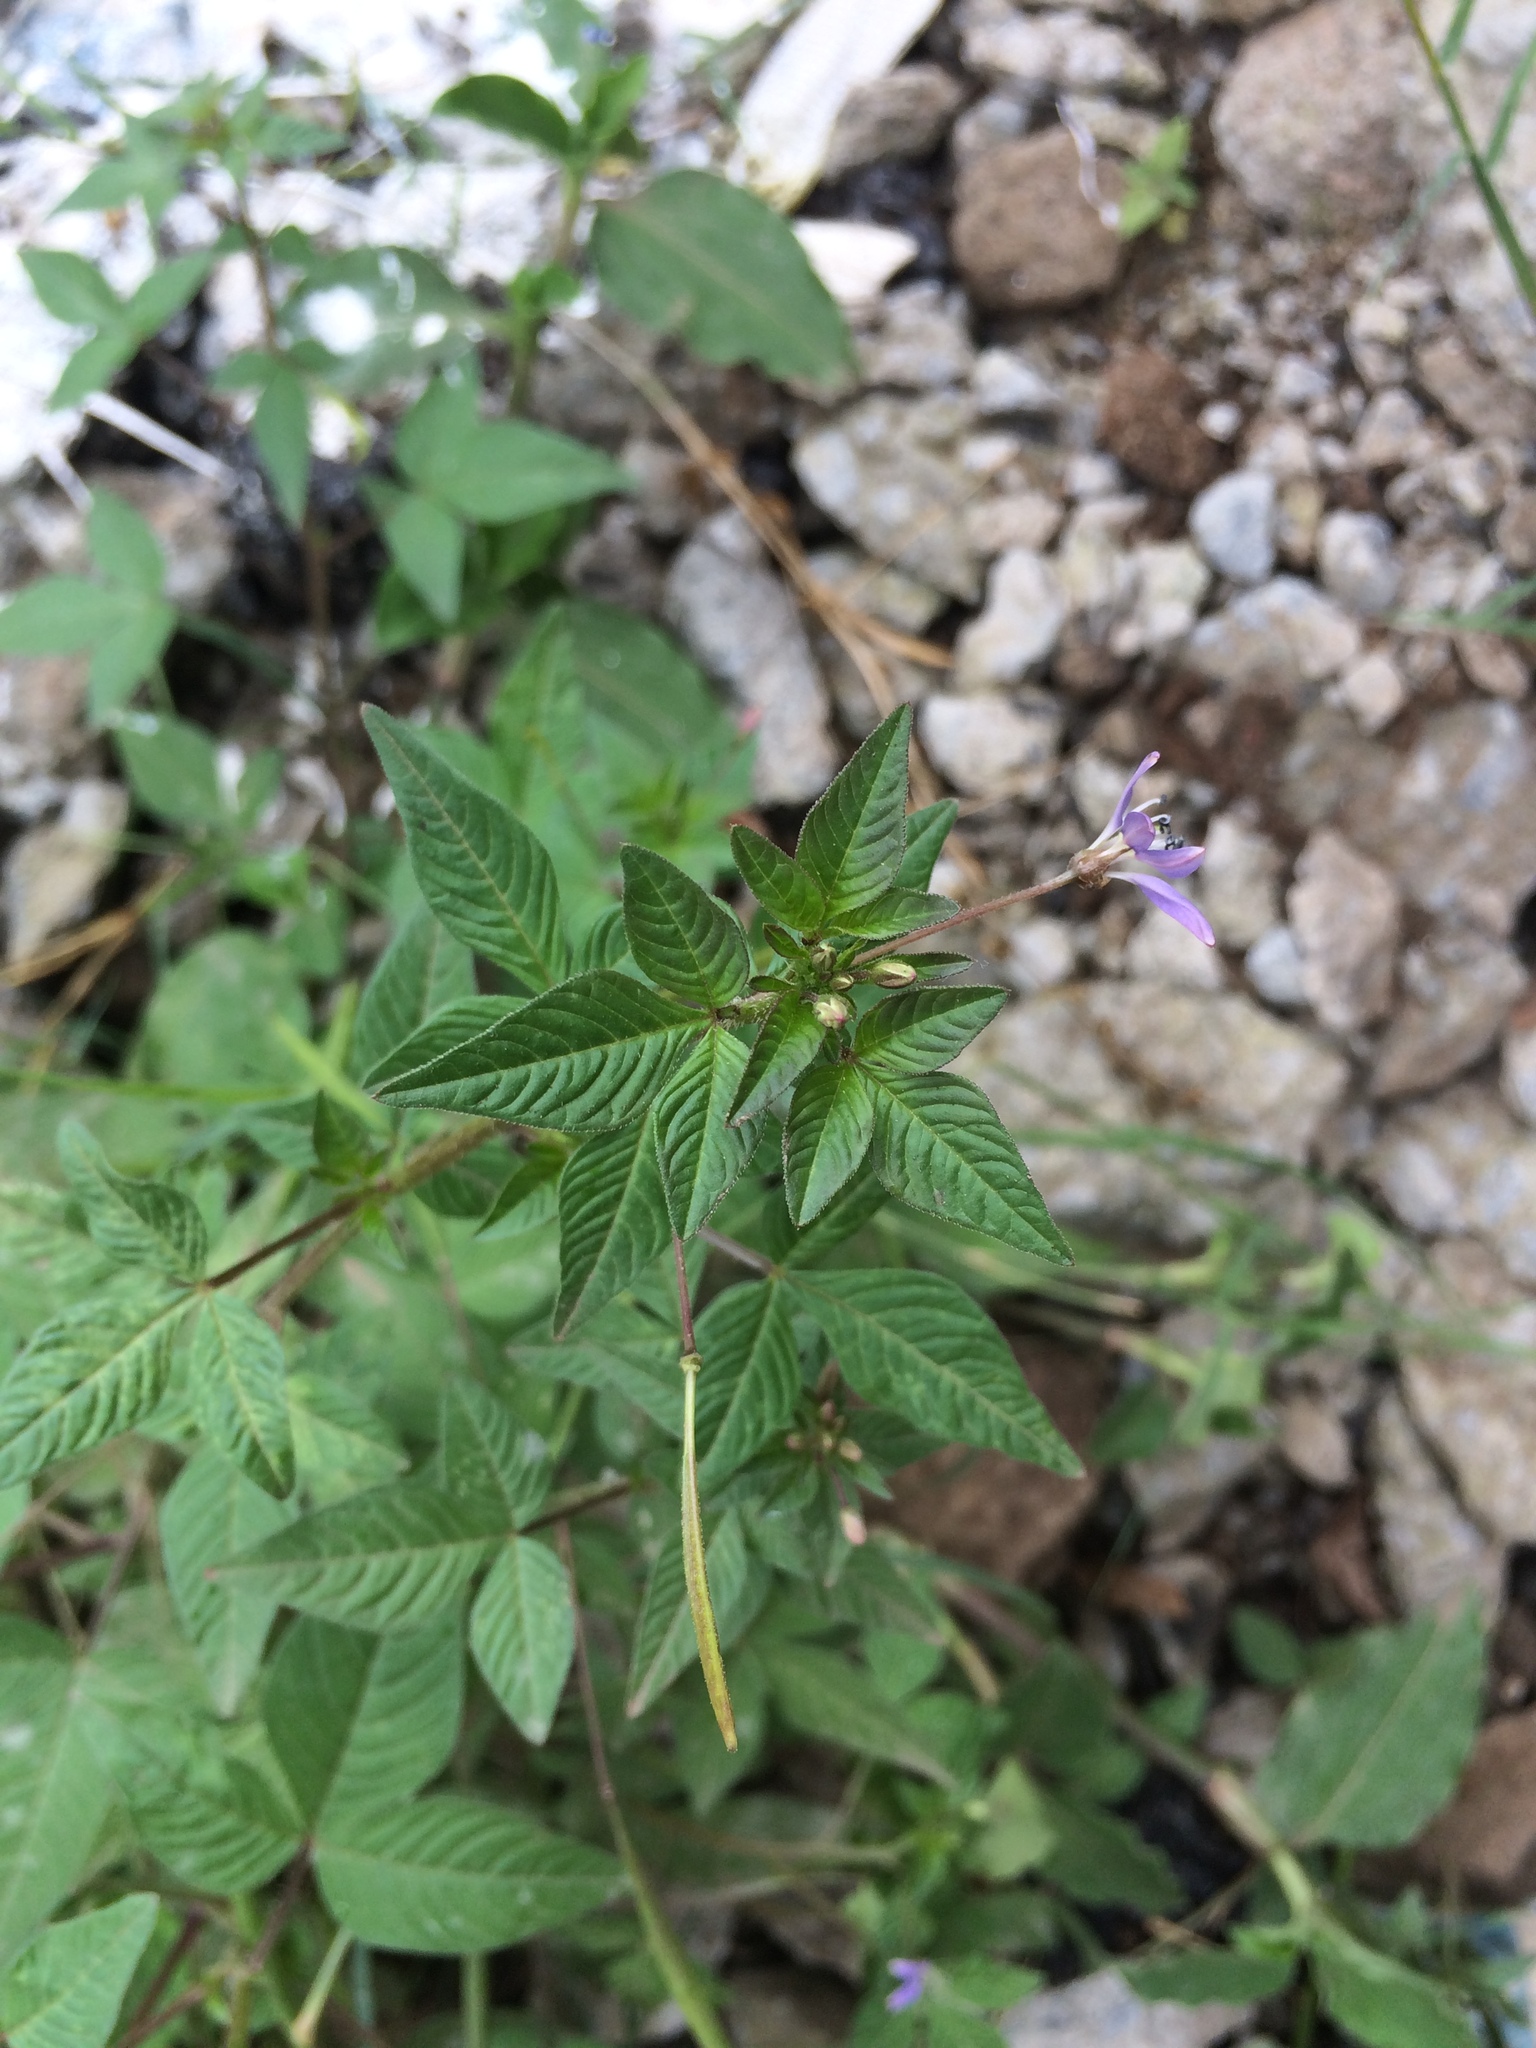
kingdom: Plantae
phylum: Tracheophyta
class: Magnoliopsida
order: Brassicales
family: Cleomaceae
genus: Sieruela
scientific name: Sieruela rutidosperma
